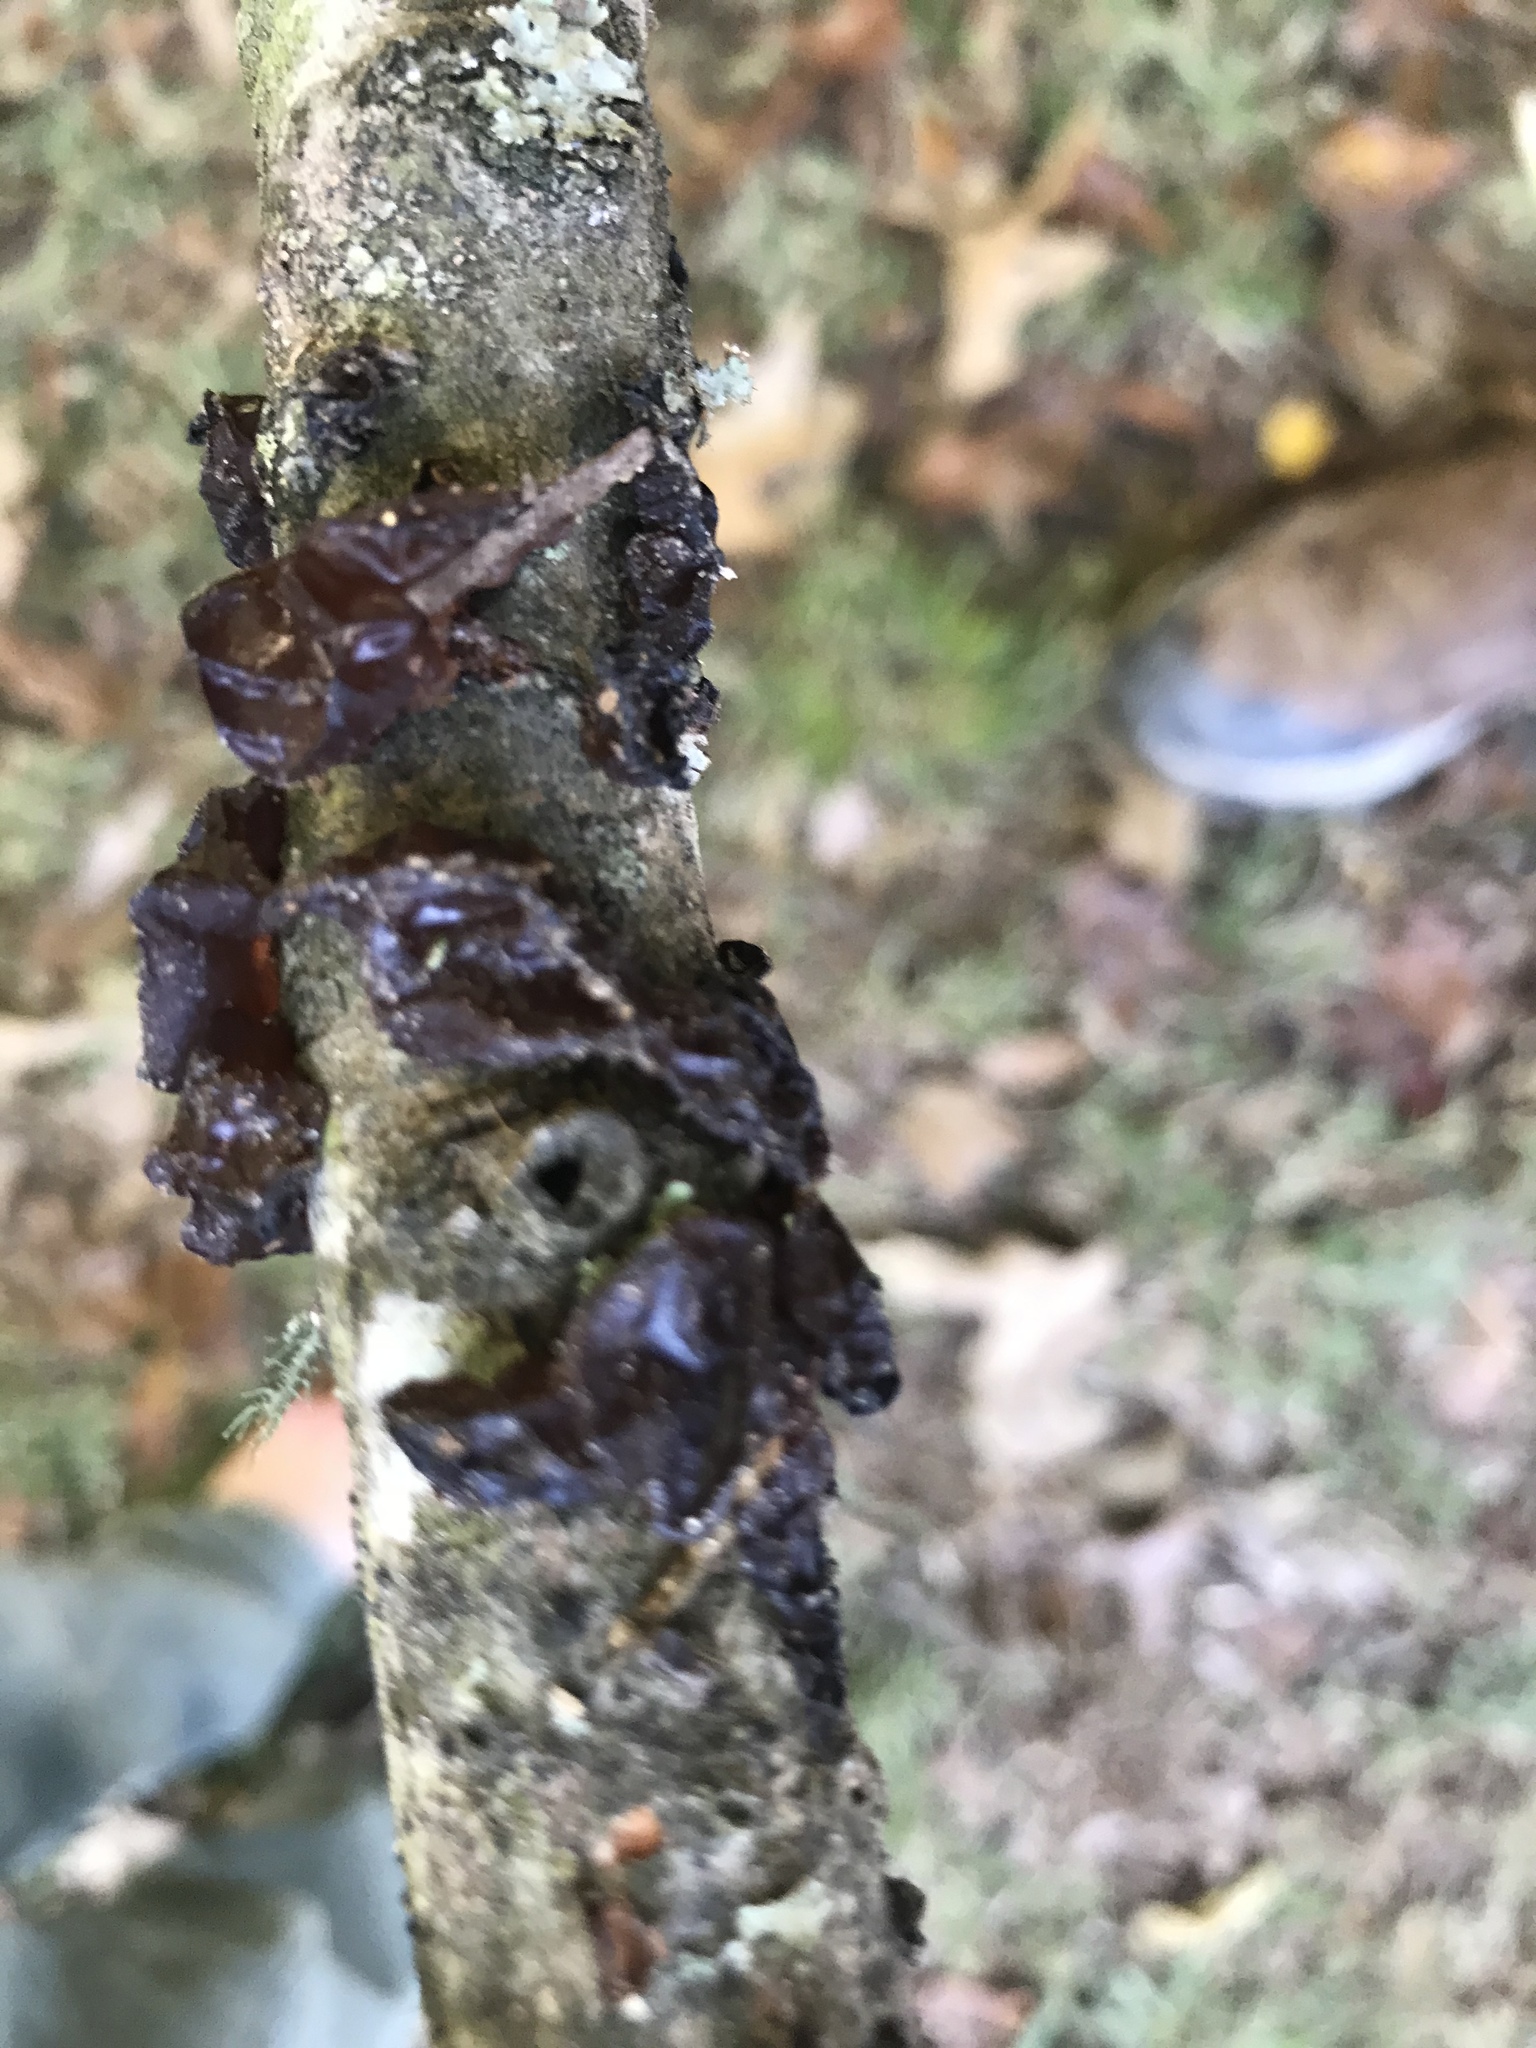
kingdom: Fungi
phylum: Basidiomycota
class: Agaricomycetes
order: Auriculariales
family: Auriculariaceae
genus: Exidia
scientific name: Exidia
